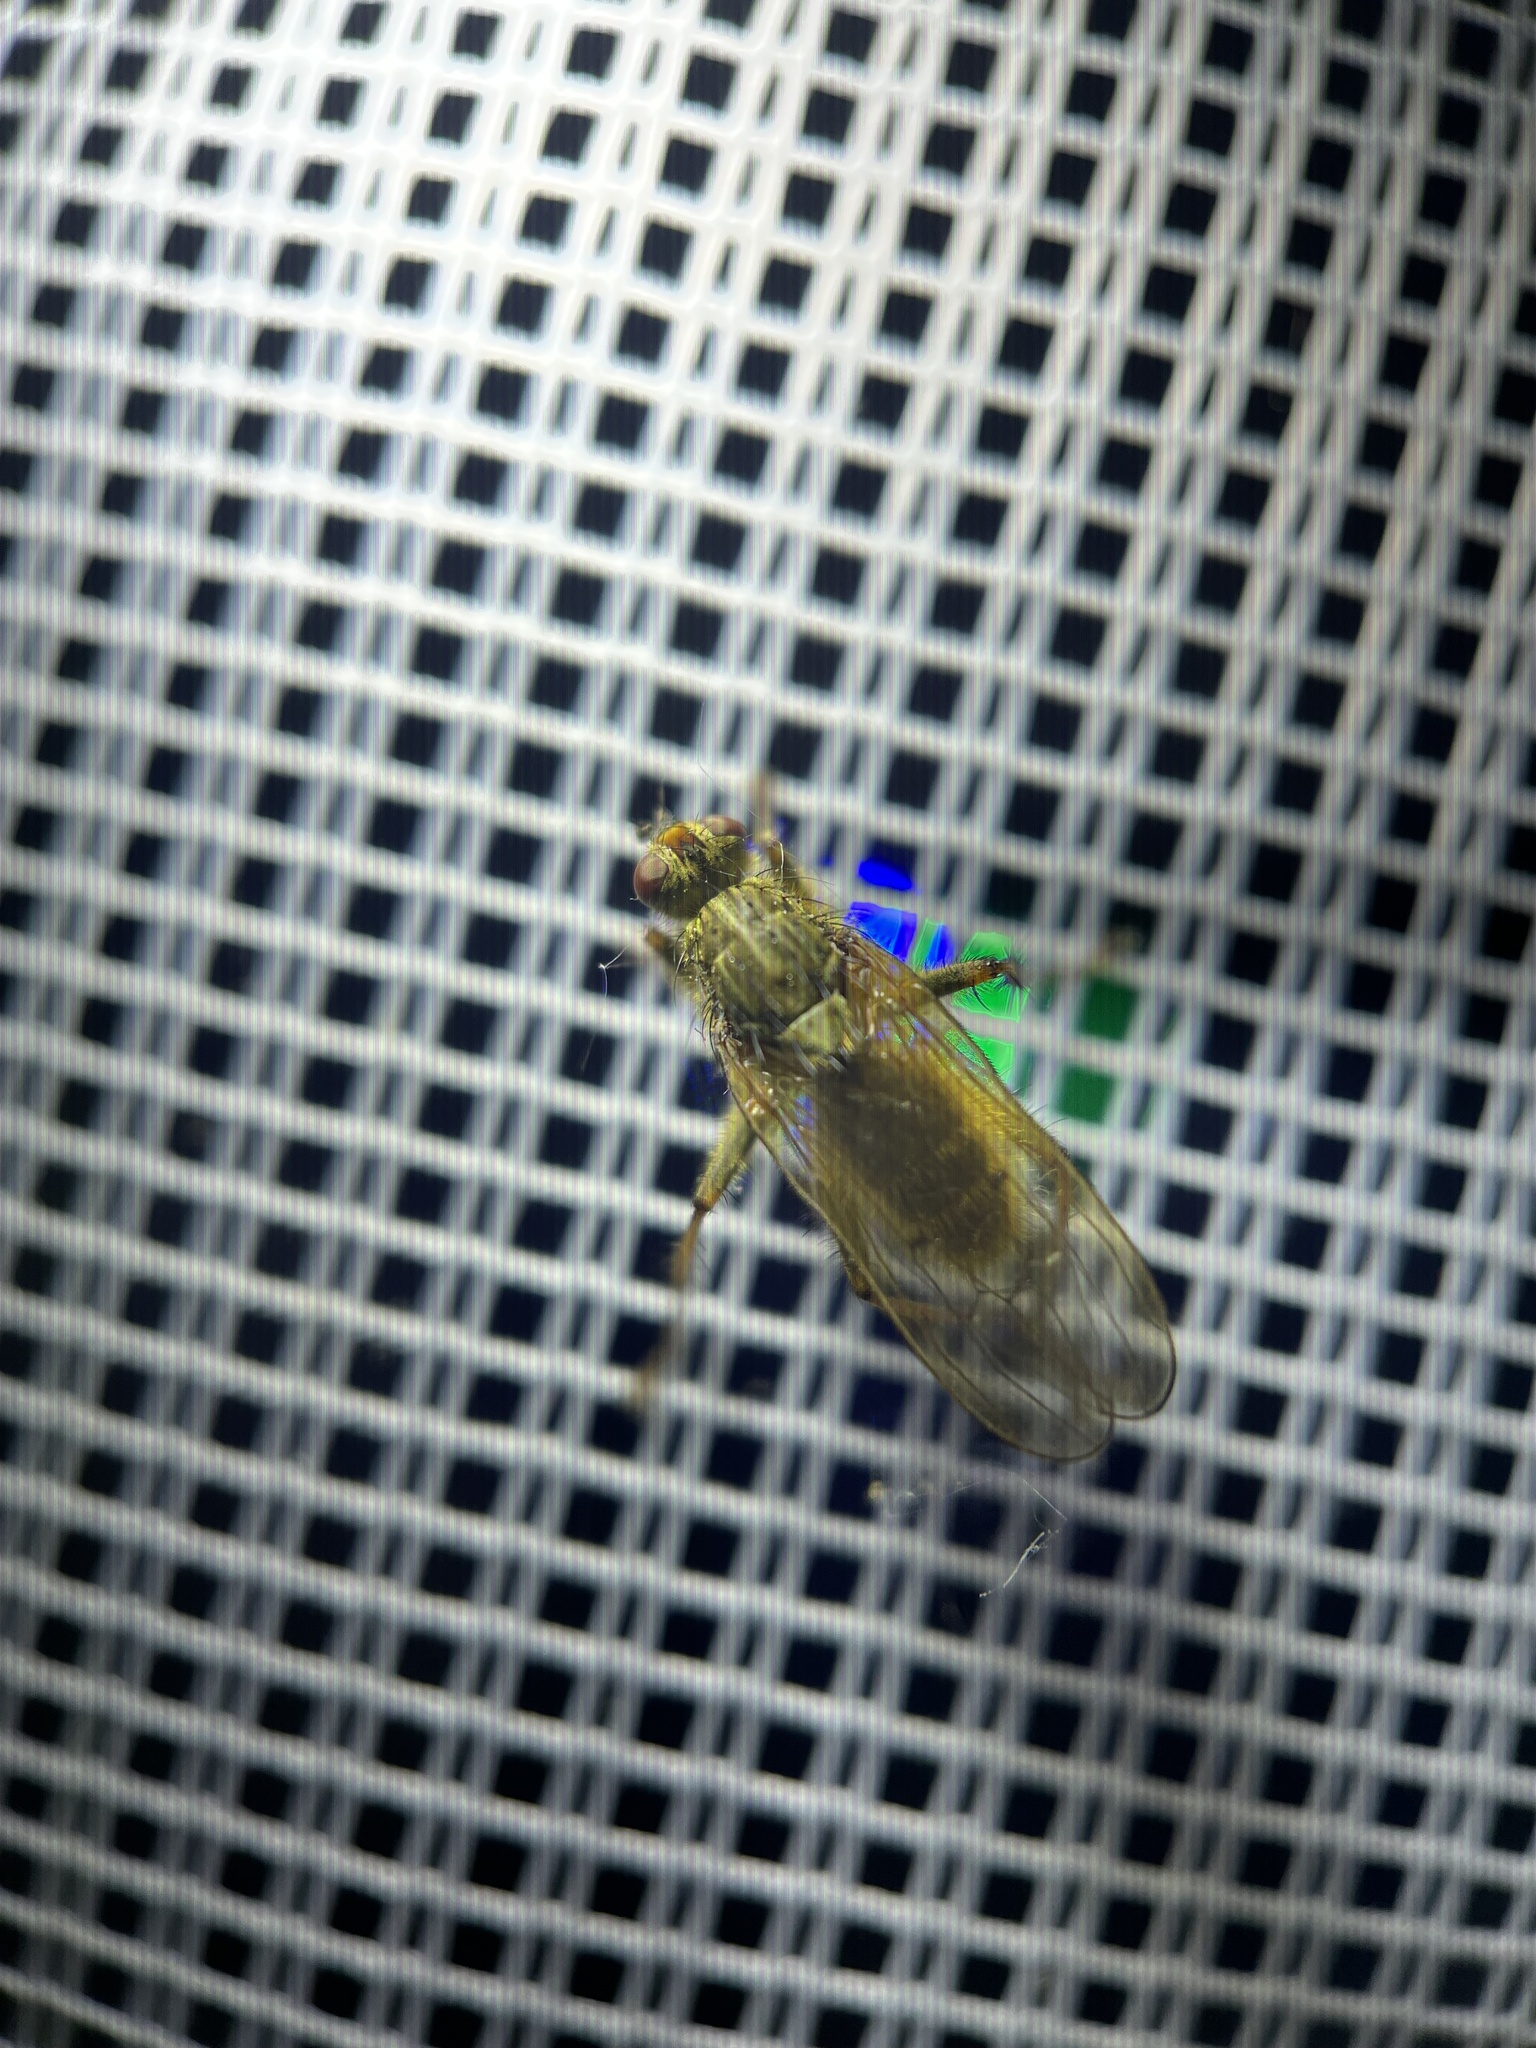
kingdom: Animalia
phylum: Arthropoda
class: Insecta
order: Diptera
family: Scathophagidae
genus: Scathophaga
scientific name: Scathophaga stercoraria
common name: Yellow dung fly
